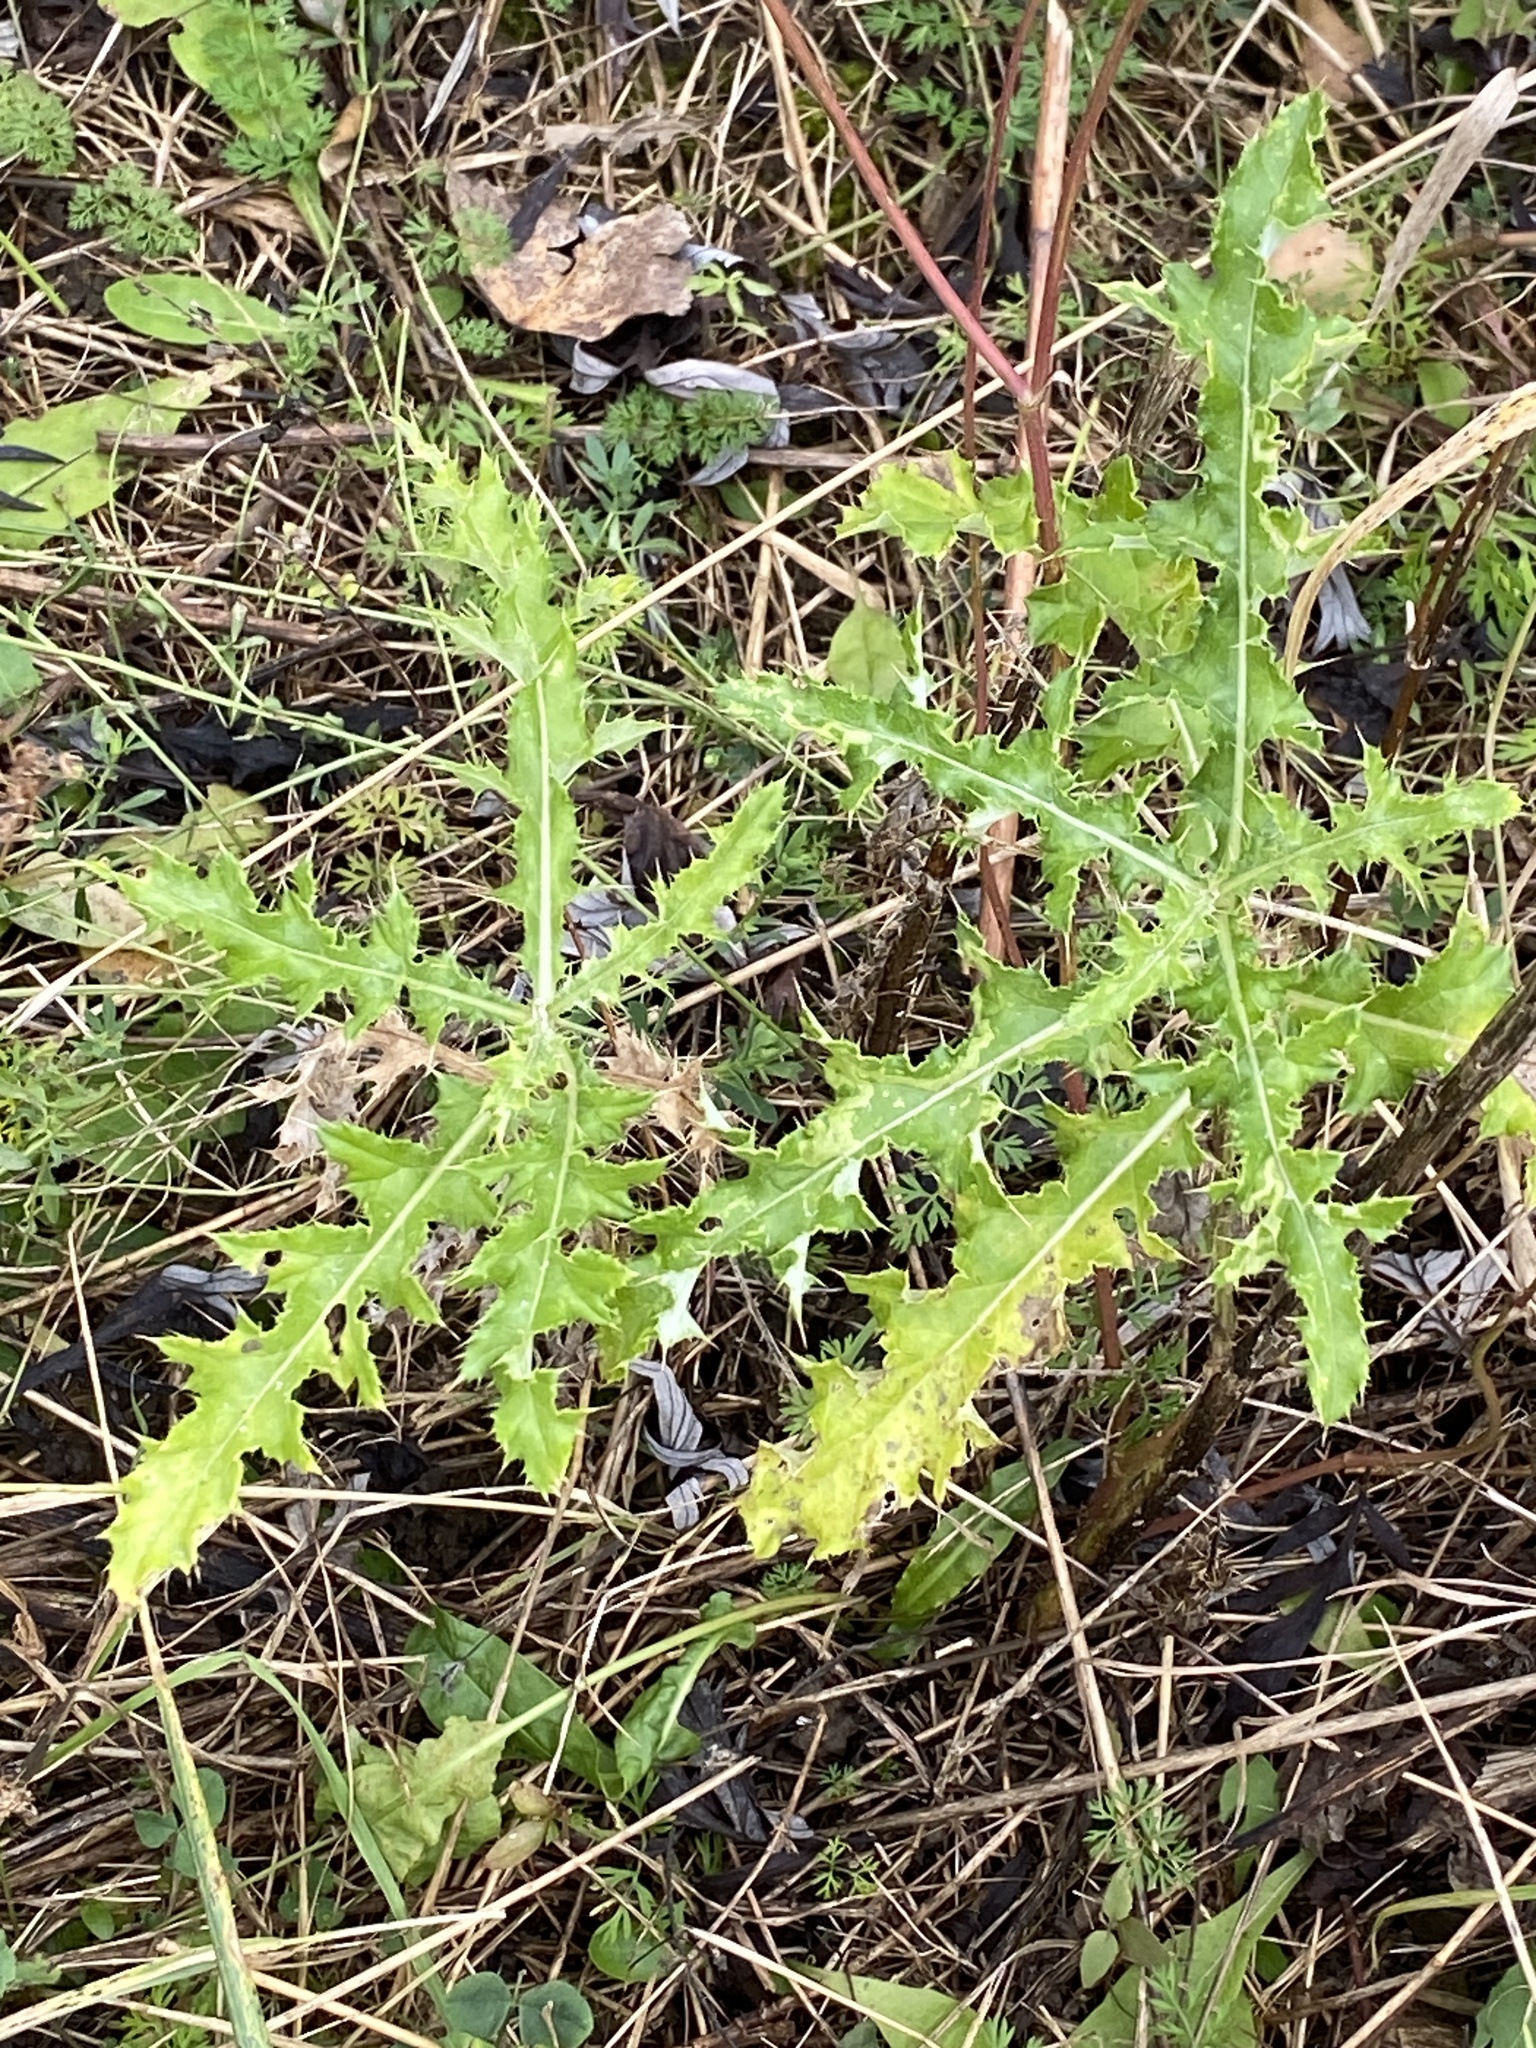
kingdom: Plantae
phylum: Tracheophyta
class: Magnoliopsida
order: Asterales
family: Asteraceae
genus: Cirsium
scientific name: Cirsium arvense
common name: Creeping thistle
